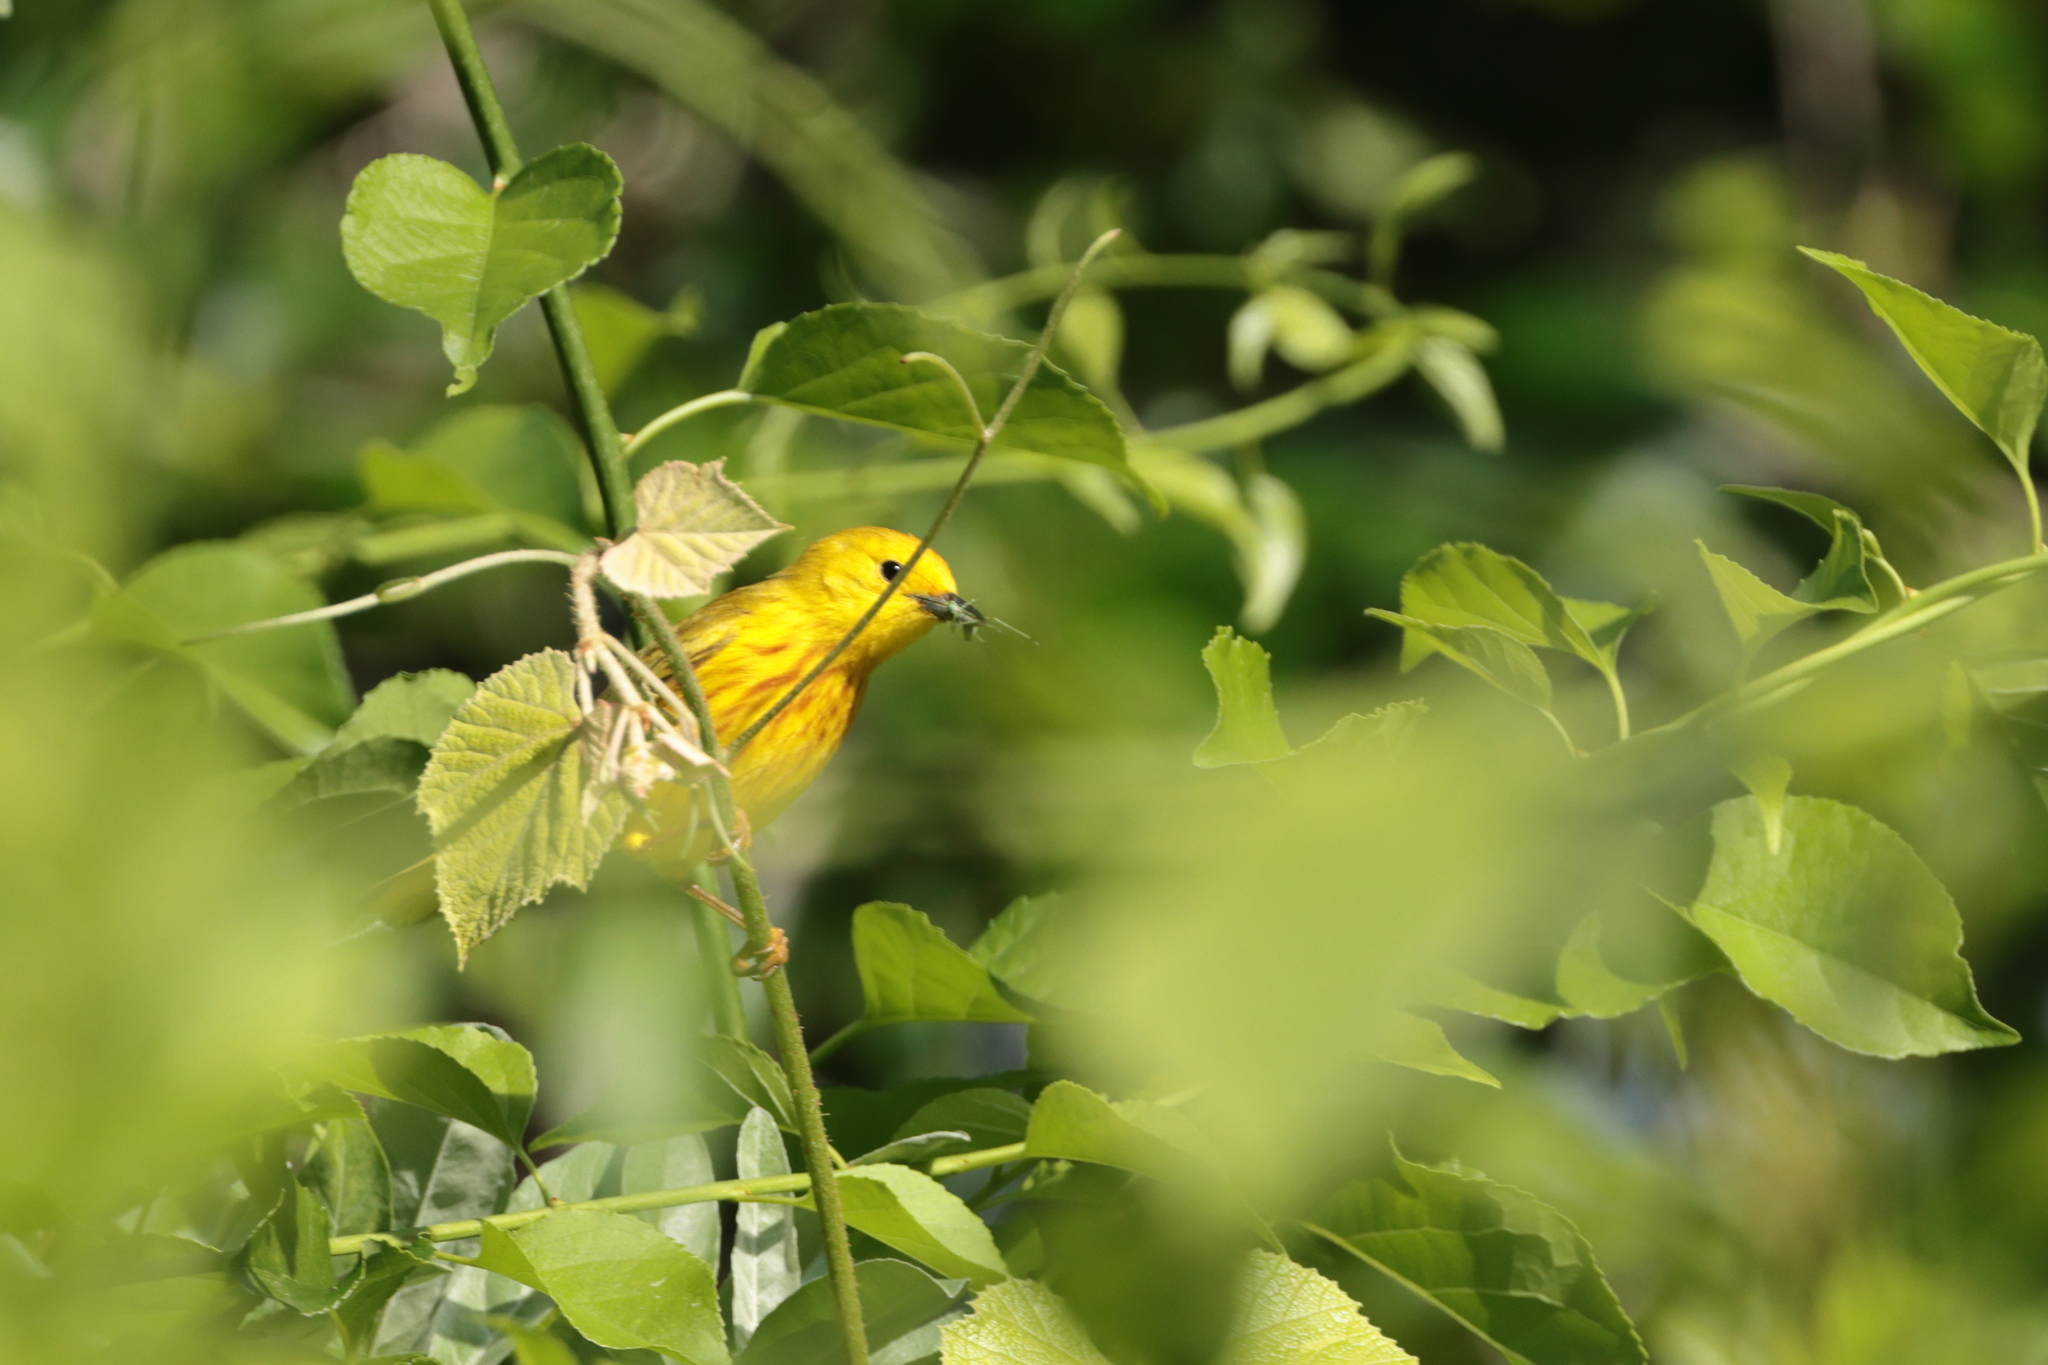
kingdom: Animalia
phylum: Chordata
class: Aves
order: Passeriformes
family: Parulidae
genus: Setophaga
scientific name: Setophaga petechia
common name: Yellow warbler
